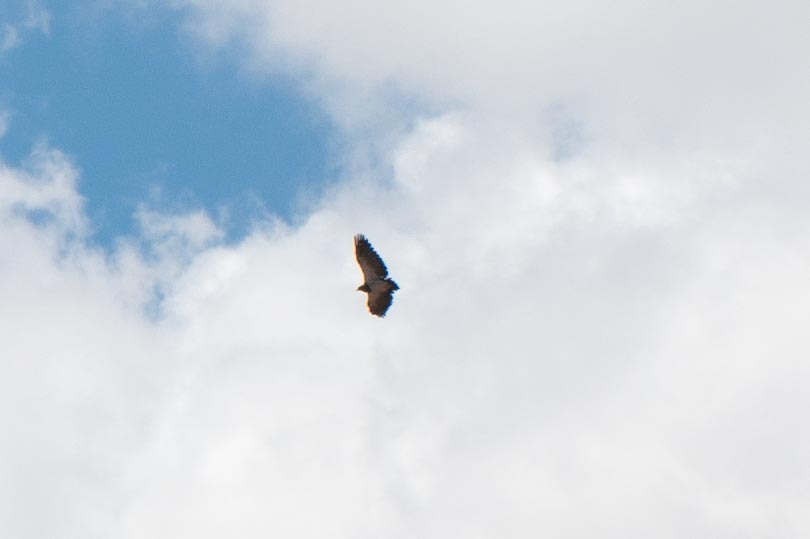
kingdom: Animalia
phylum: Chordata
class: Aves
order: Accipitriformes
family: Accipitridae
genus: Geranoaetus
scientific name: Geranoaetus melanoleucus
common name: Black-chested buzzard-eagle
